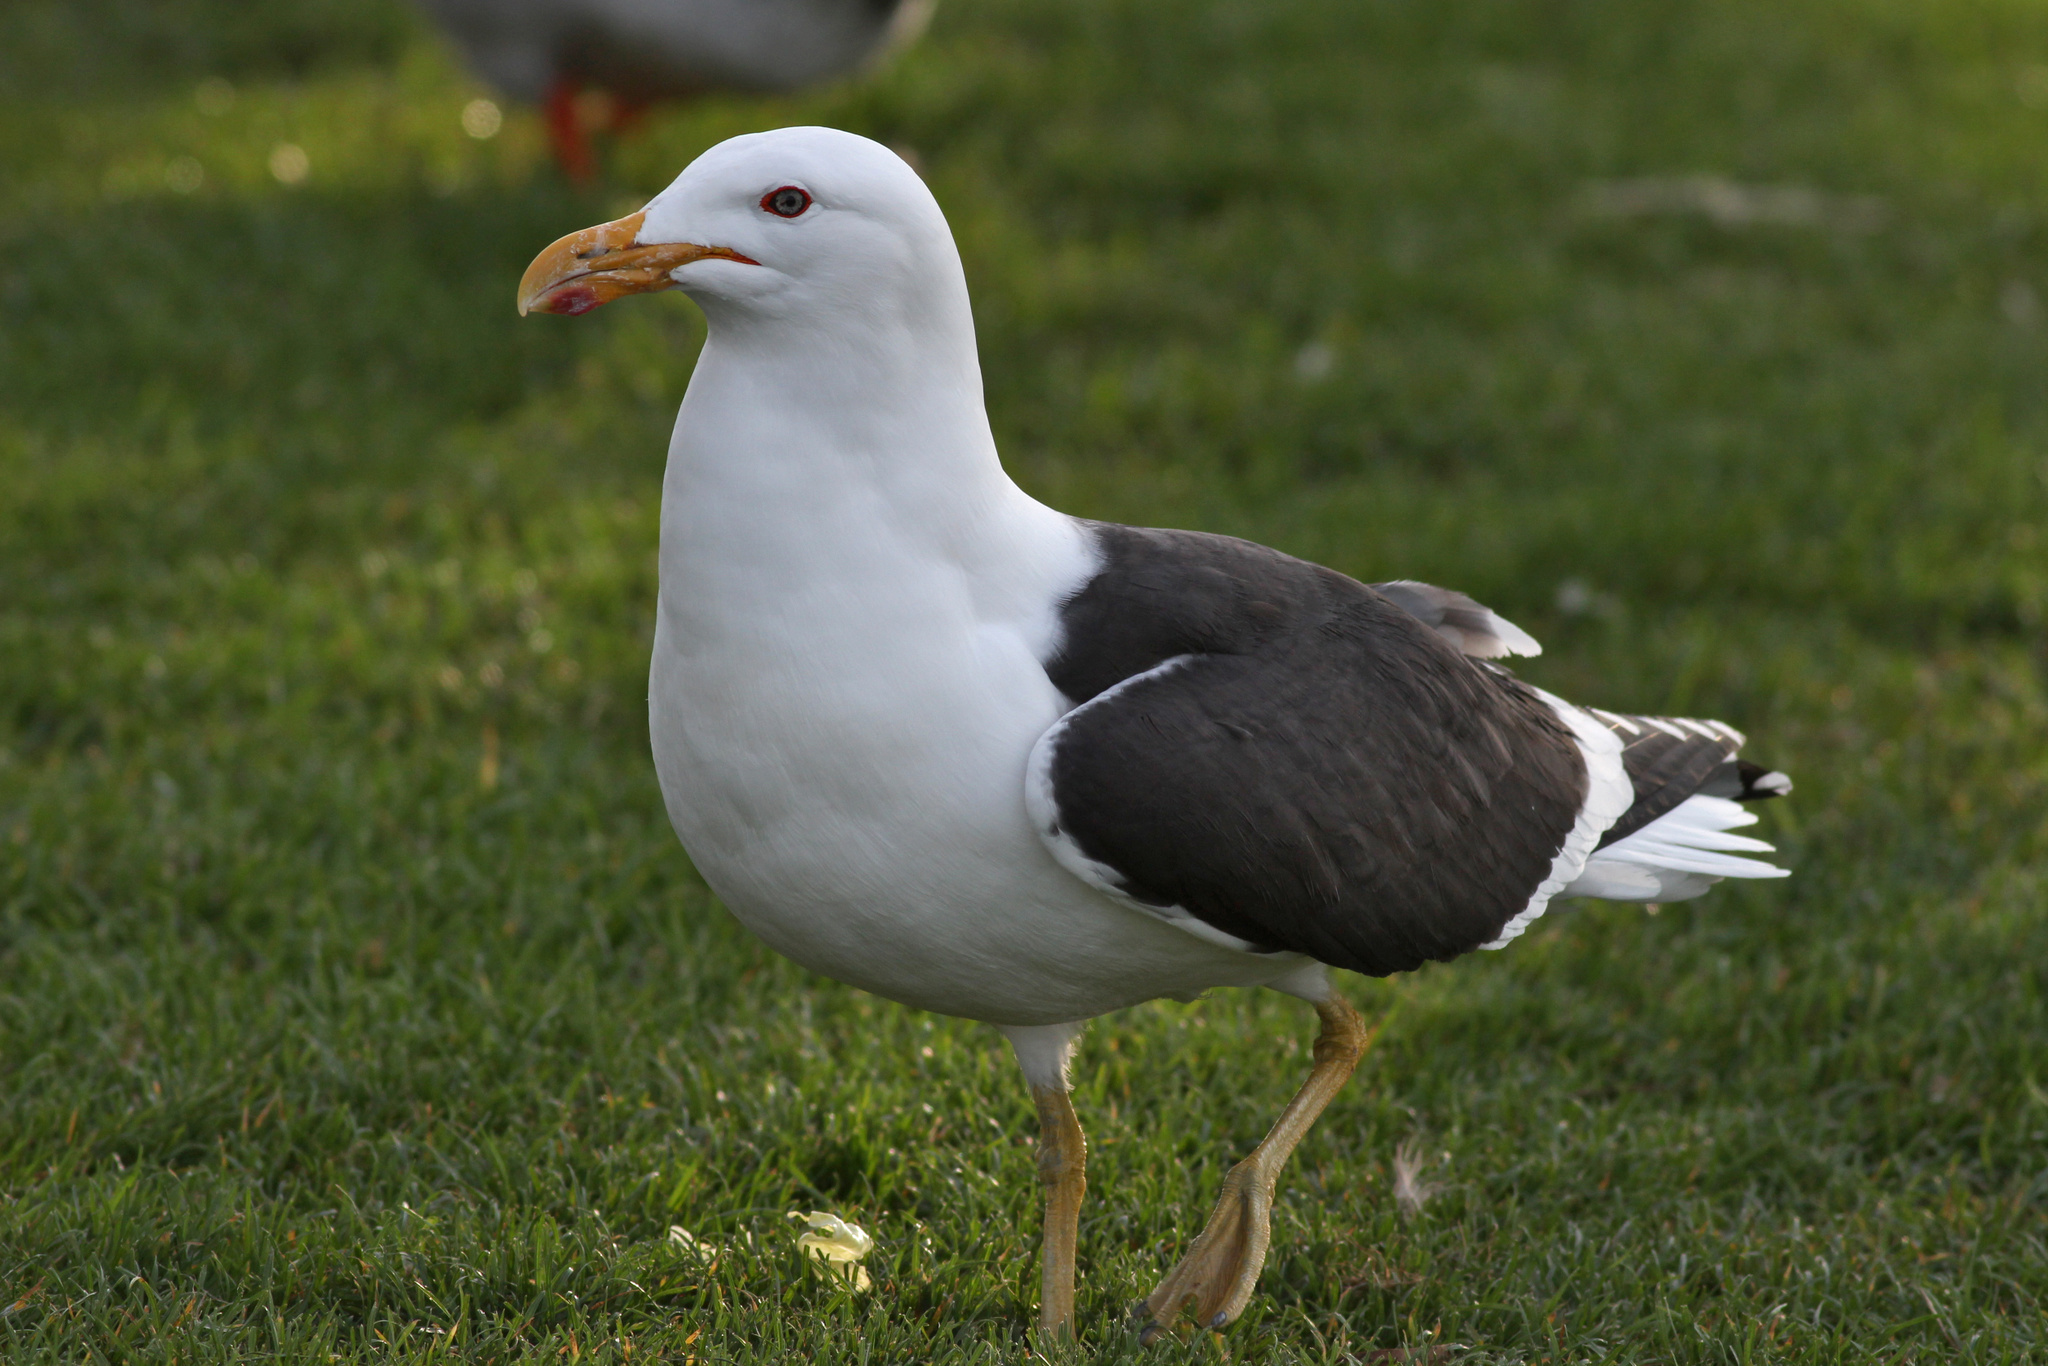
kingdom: Animalia
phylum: Chordata
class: Aves
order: Charadriiformes
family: Laridae
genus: Larus
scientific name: Larus dominicanus
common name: Kelp gull
